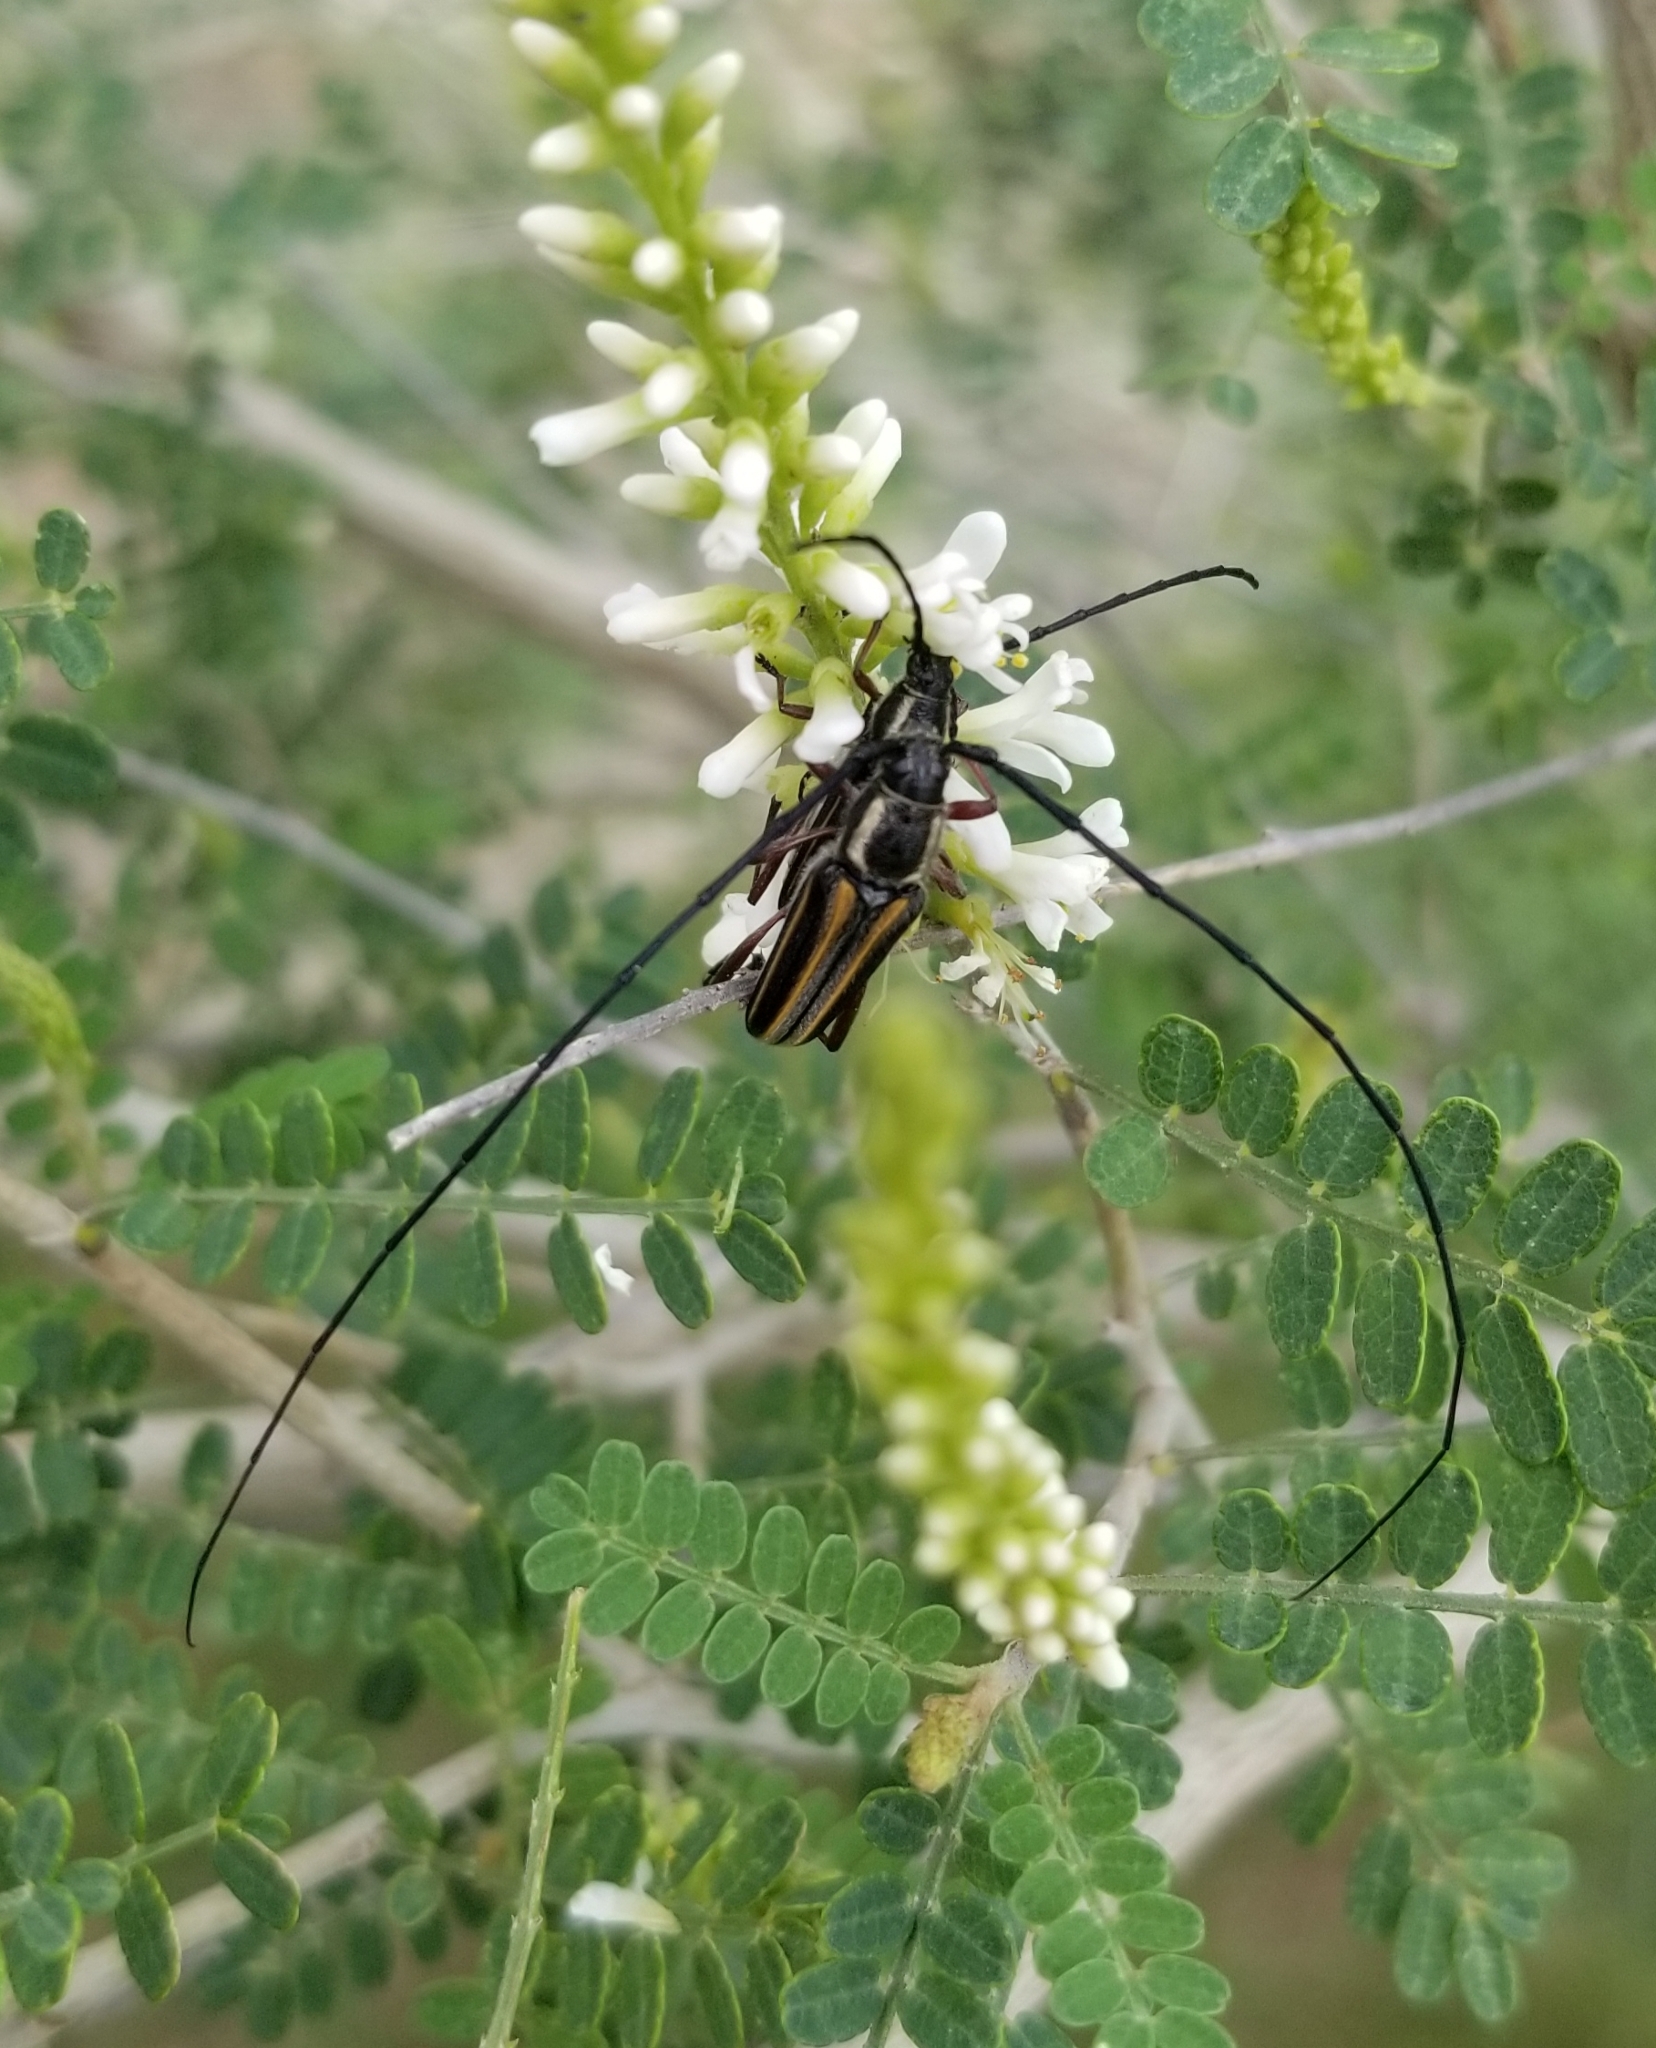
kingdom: Animalia
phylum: Arthropoda
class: Insecta
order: Coleoptera
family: Cerambycidae
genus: Sphaenothecus
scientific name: Sphaenothecus bilineatus
